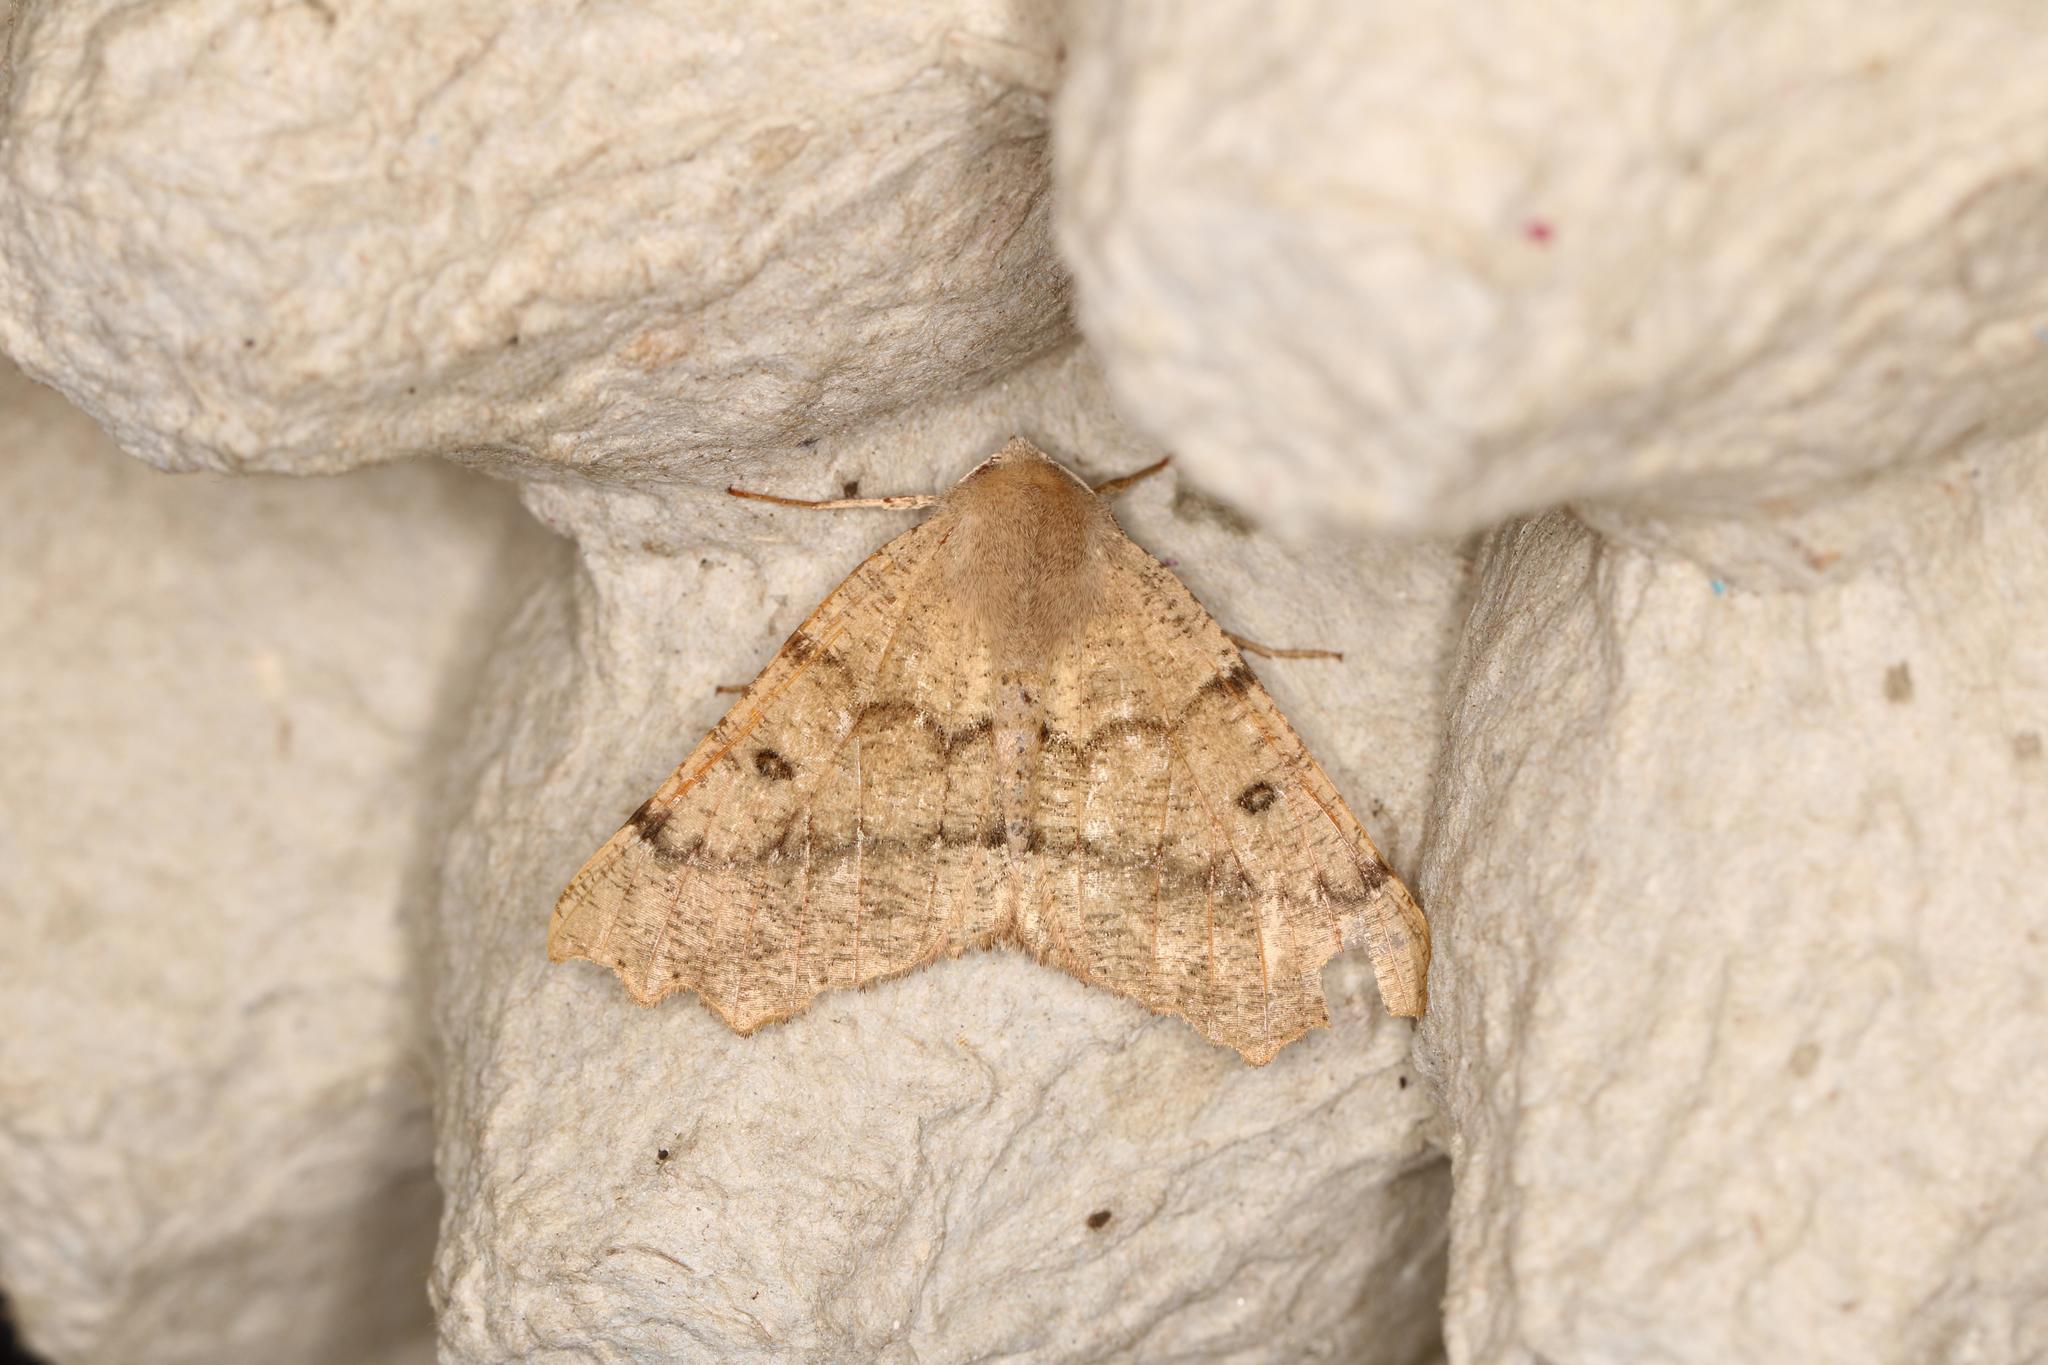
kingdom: Animalia
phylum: Arthropoda
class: Insecta
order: Lepidoptera
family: Geometridae
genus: Odontopera
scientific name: Odontopera bidentata
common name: Scalloped hazel
